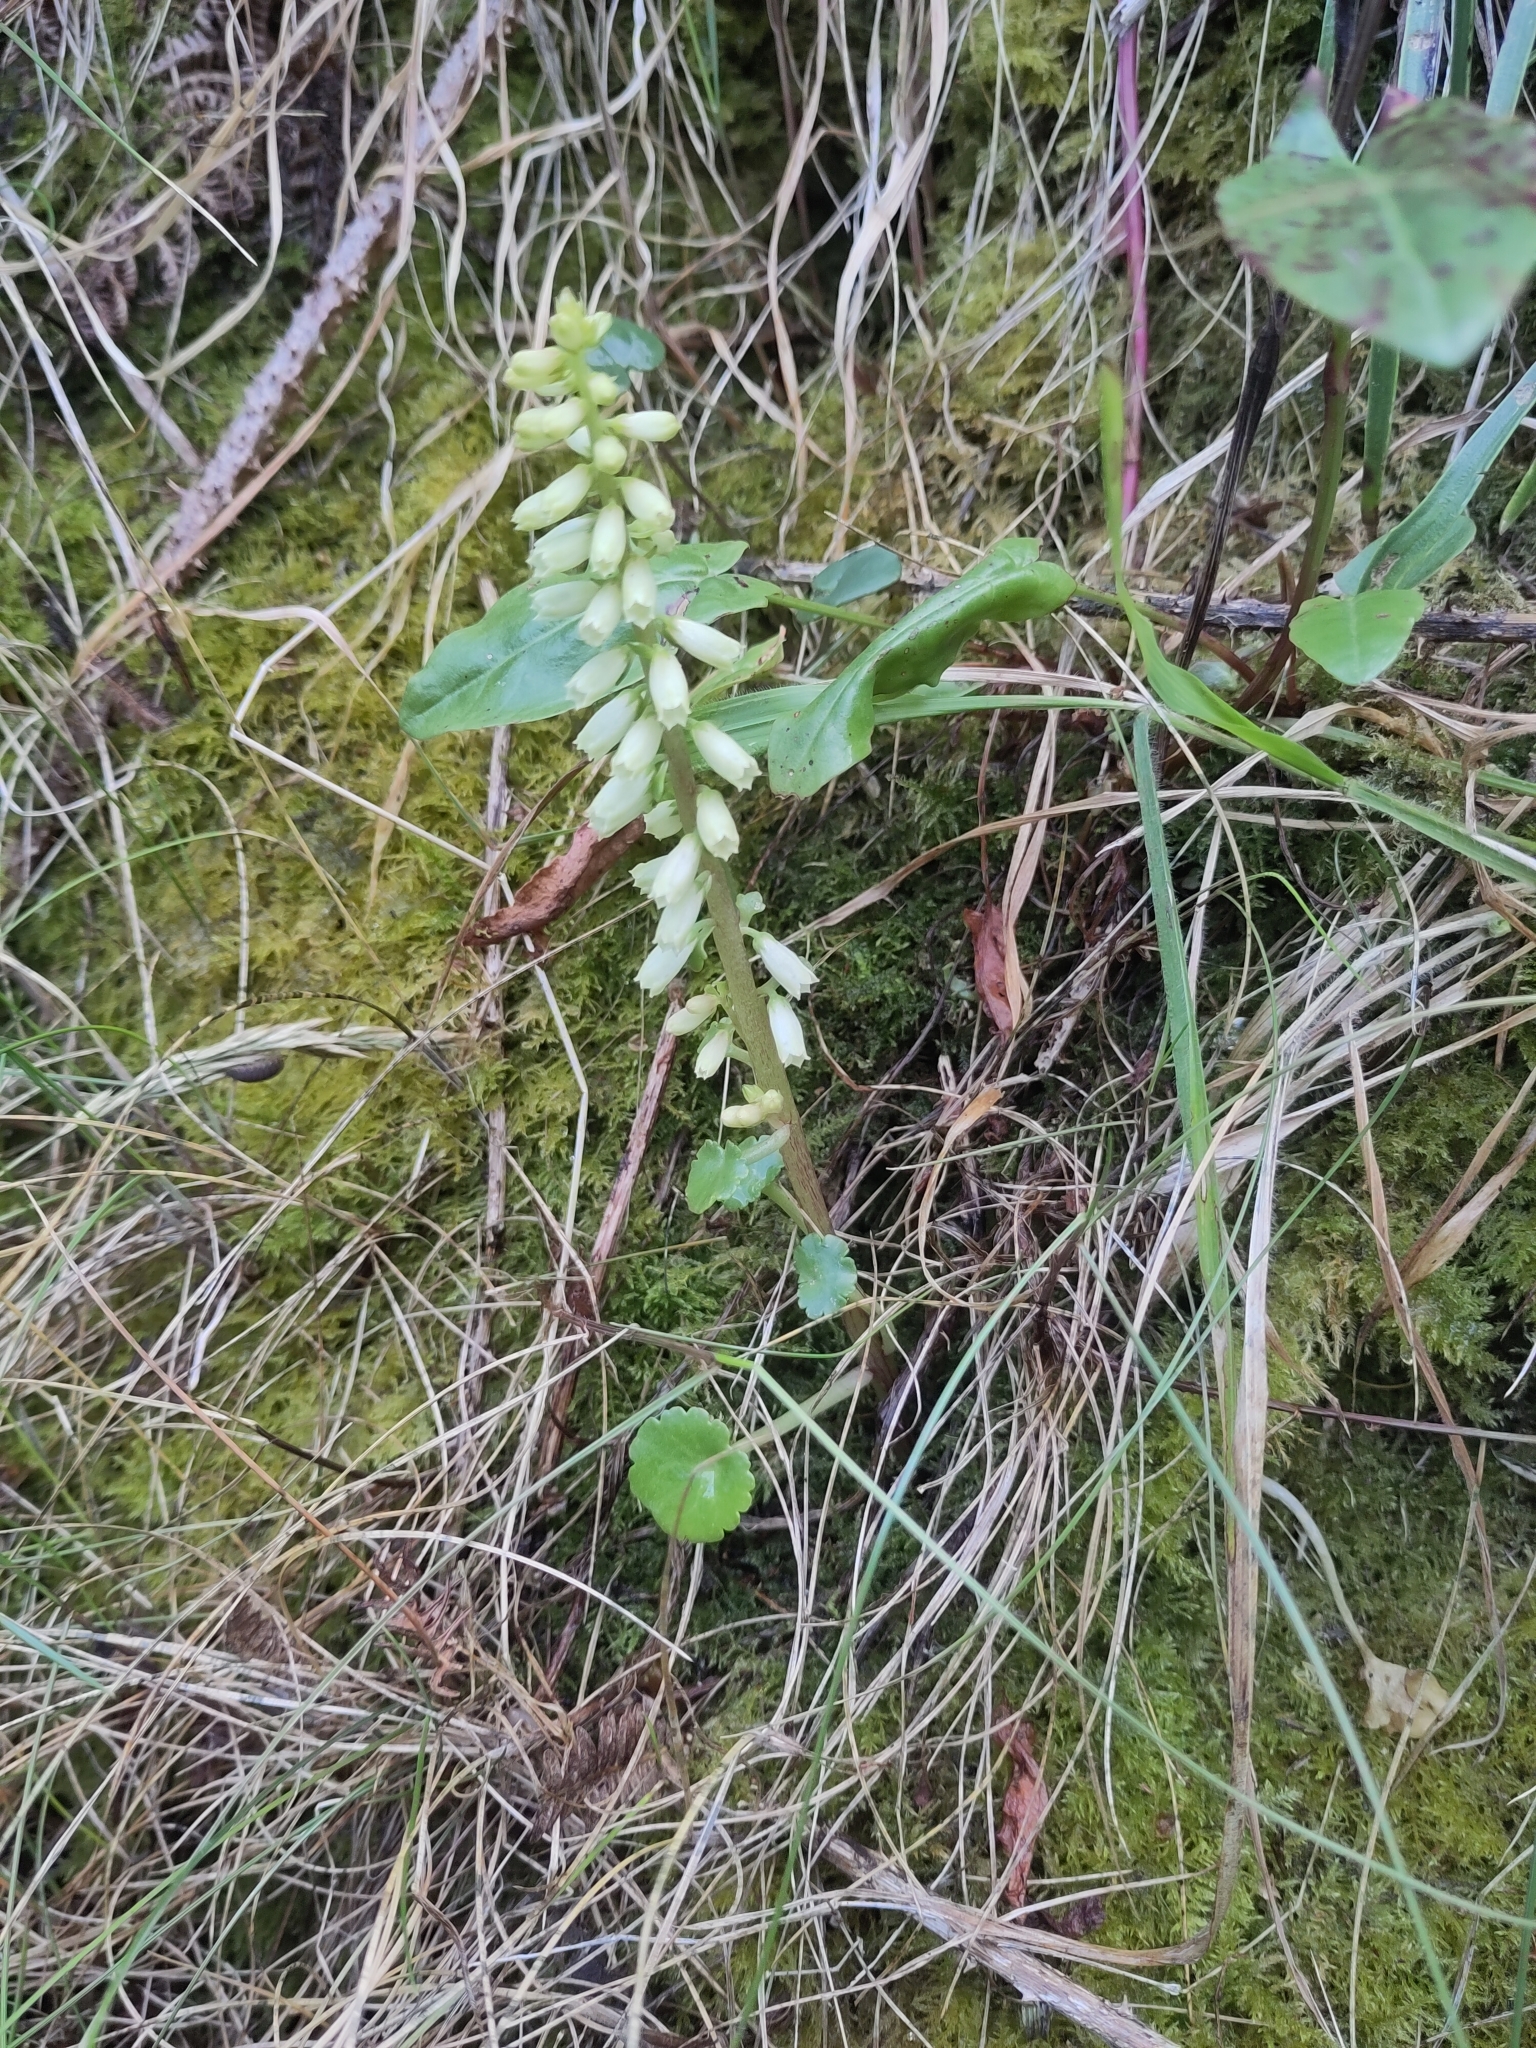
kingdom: Plantae
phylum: Tracheophyta
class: Magnoliopsida
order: Saxifragales
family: Crassulaceae
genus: Umbilicus
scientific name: Umbilicus rupestris
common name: Navelwort
